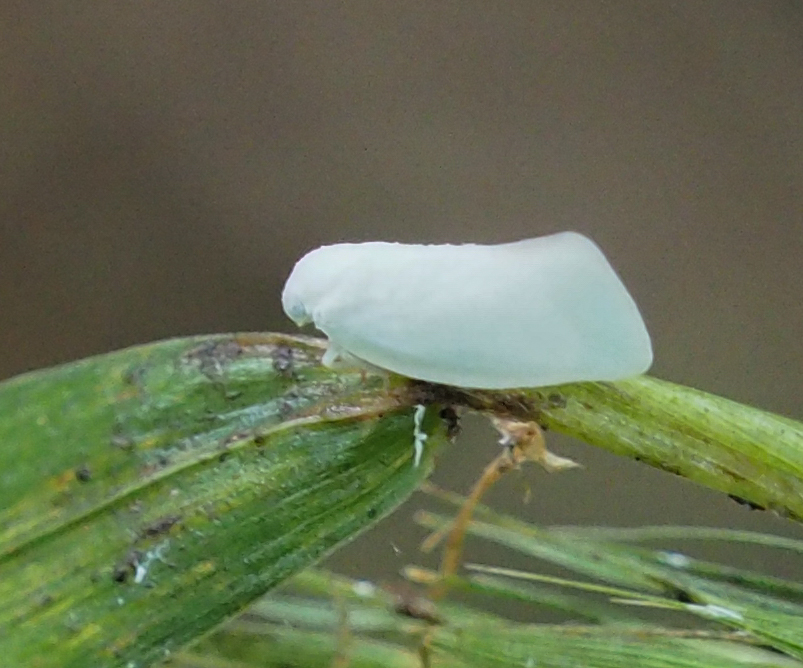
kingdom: Animalia
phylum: Arthropoda
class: Insecta
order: Hemiptera
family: Flatidae
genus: Flatormenis
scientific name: Flatormenis proxima
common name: Northern flatid planthopper
